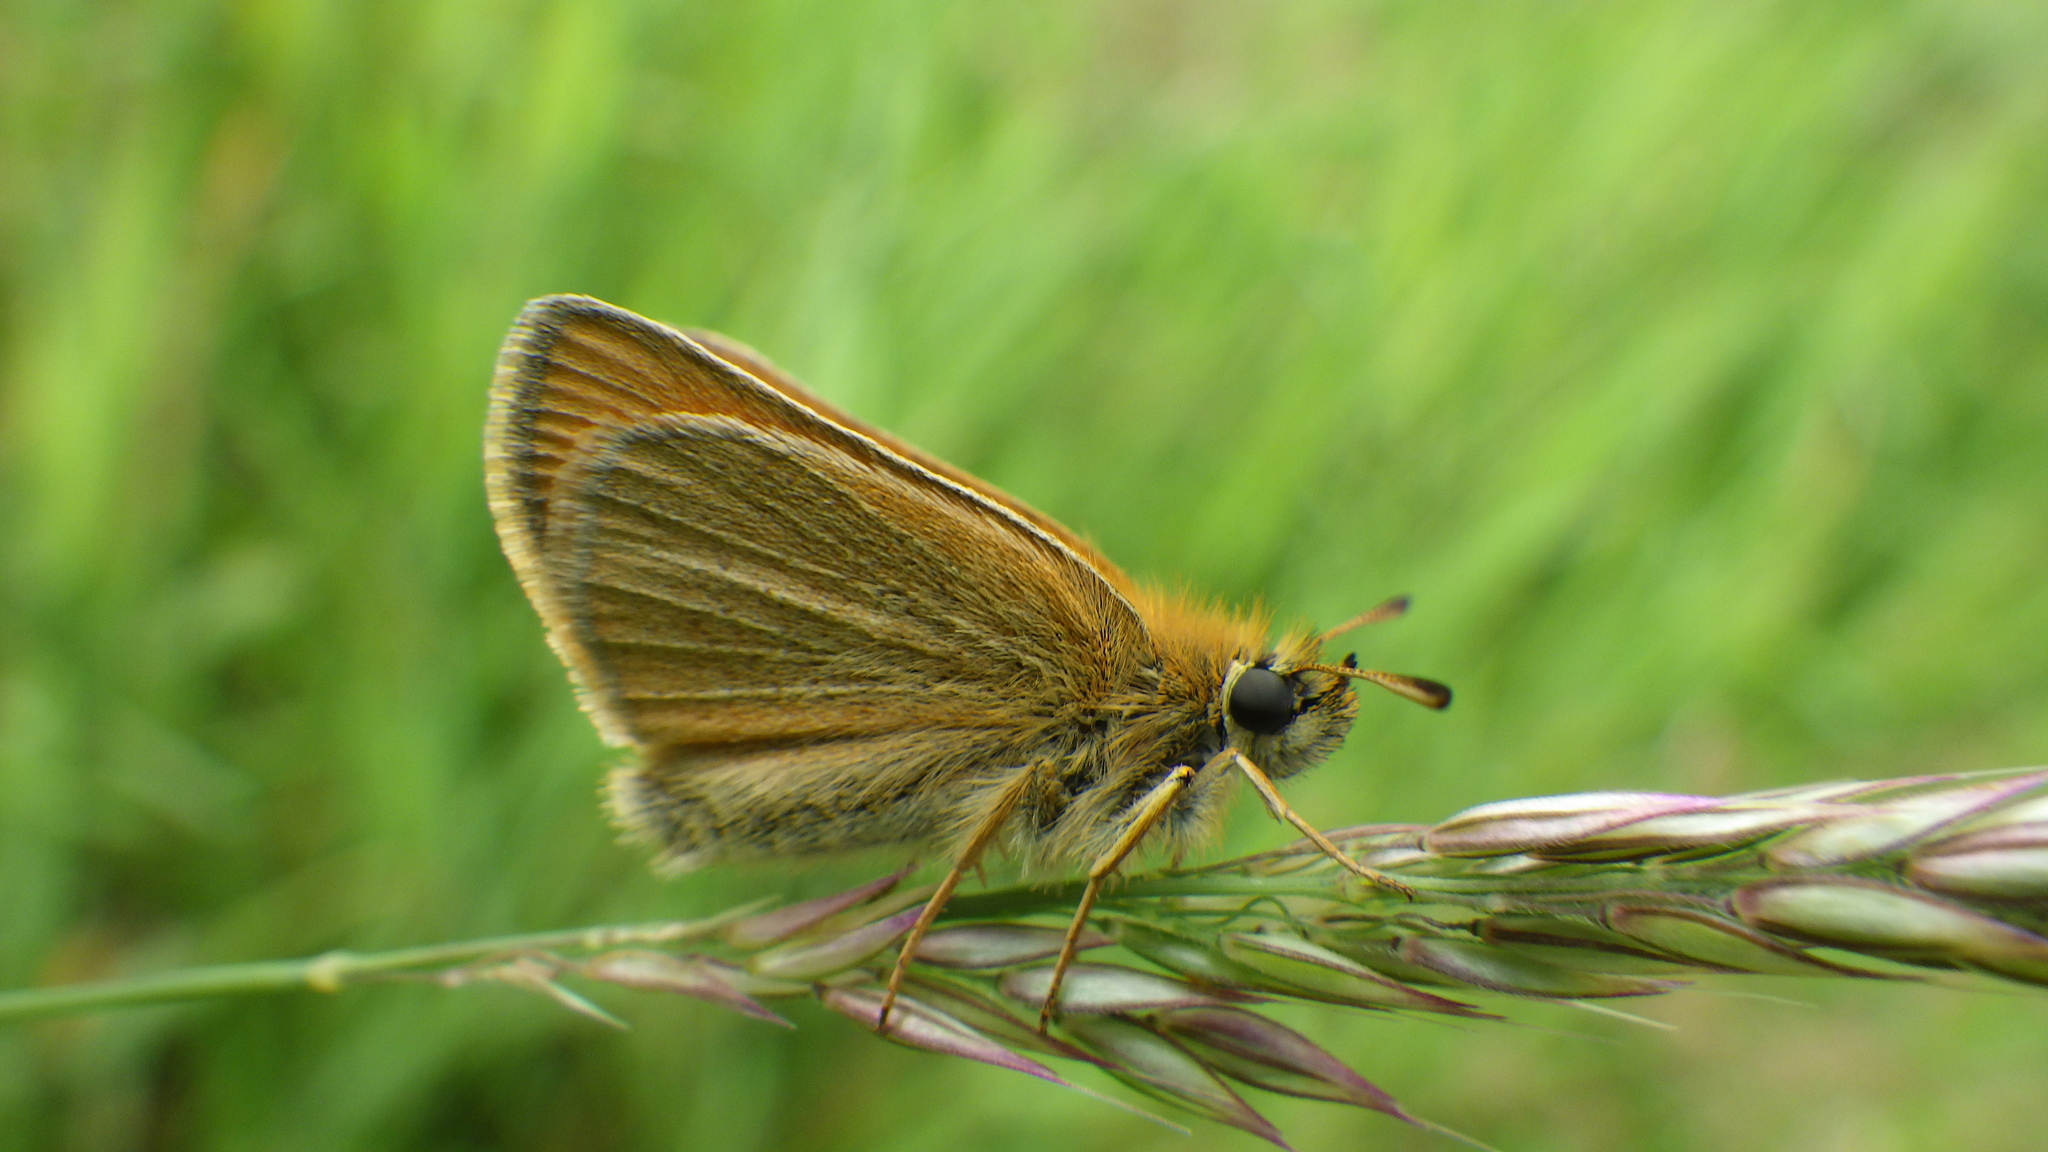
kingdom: Animalia
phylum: Arthropoda
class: Insecta
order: Lepidoptera
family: Hesperiidae
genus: Thymelicus
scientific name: Thymelicus lineola
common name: Essex skipper
